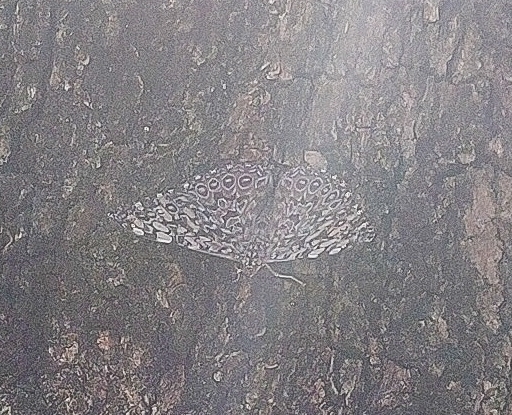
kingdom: Animalia
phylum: Arthropoda
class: Insecta
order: Lepidoptera
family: Nymphalidae
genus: Hamadryas
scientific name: Hamadryas feronia
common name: Variable cracker
